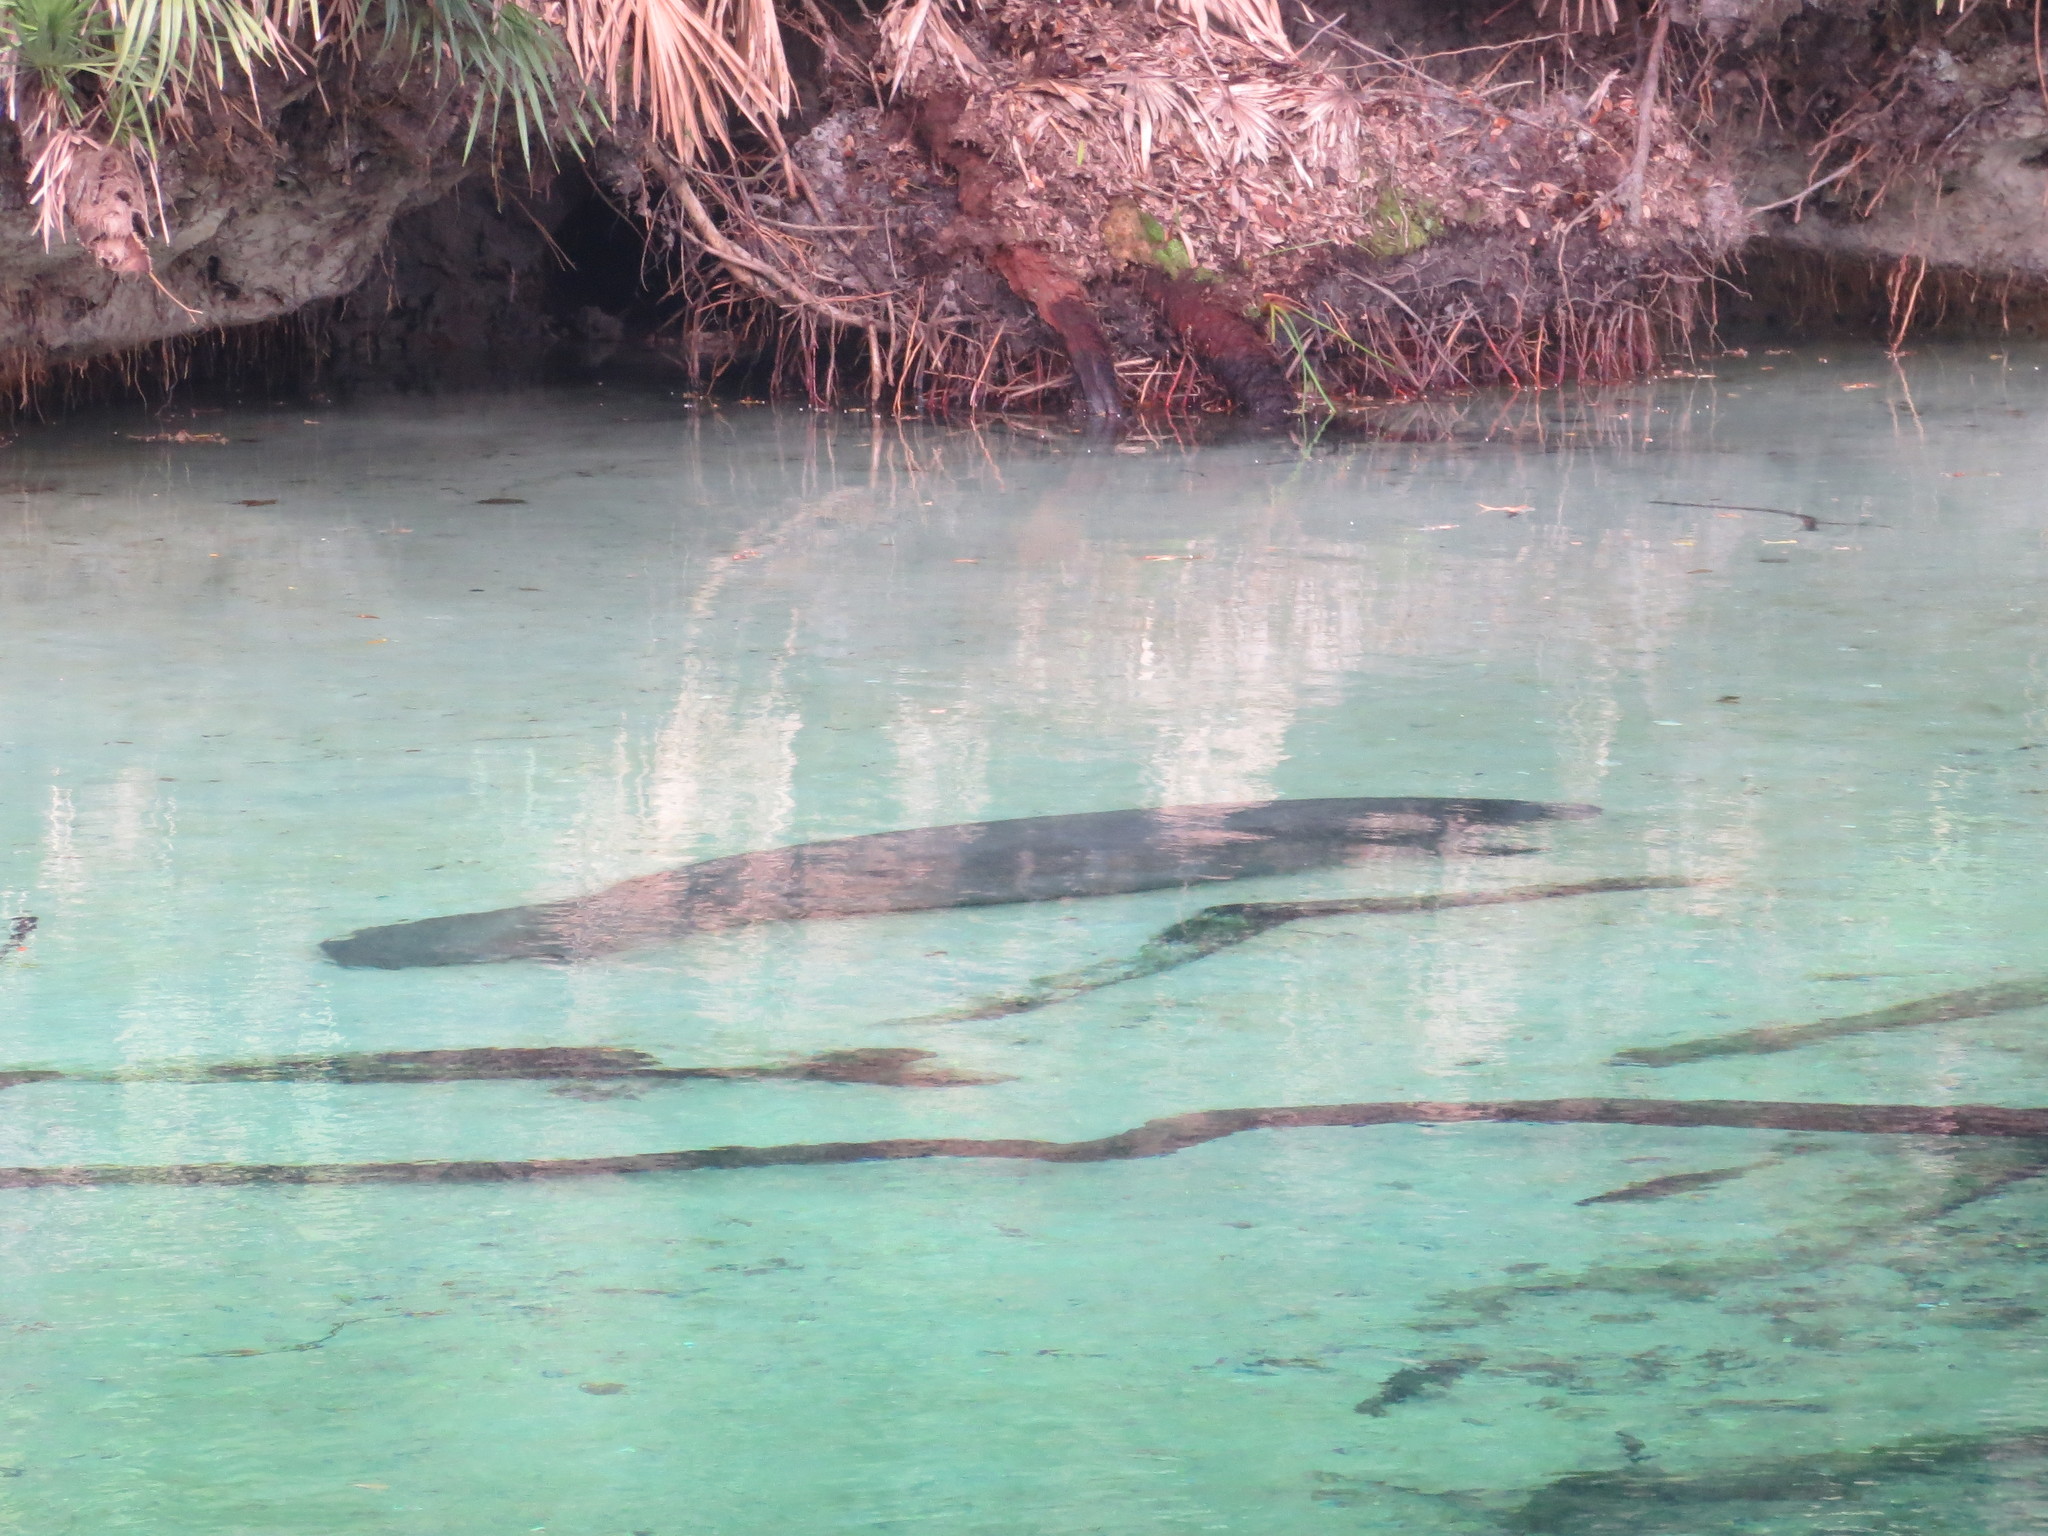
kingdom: Animalia
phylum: Chordata
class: Mammalia
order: Sirenia
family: Trichechidae
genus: Trichechus
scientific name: Trichechus manatus
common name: West indian manatee
